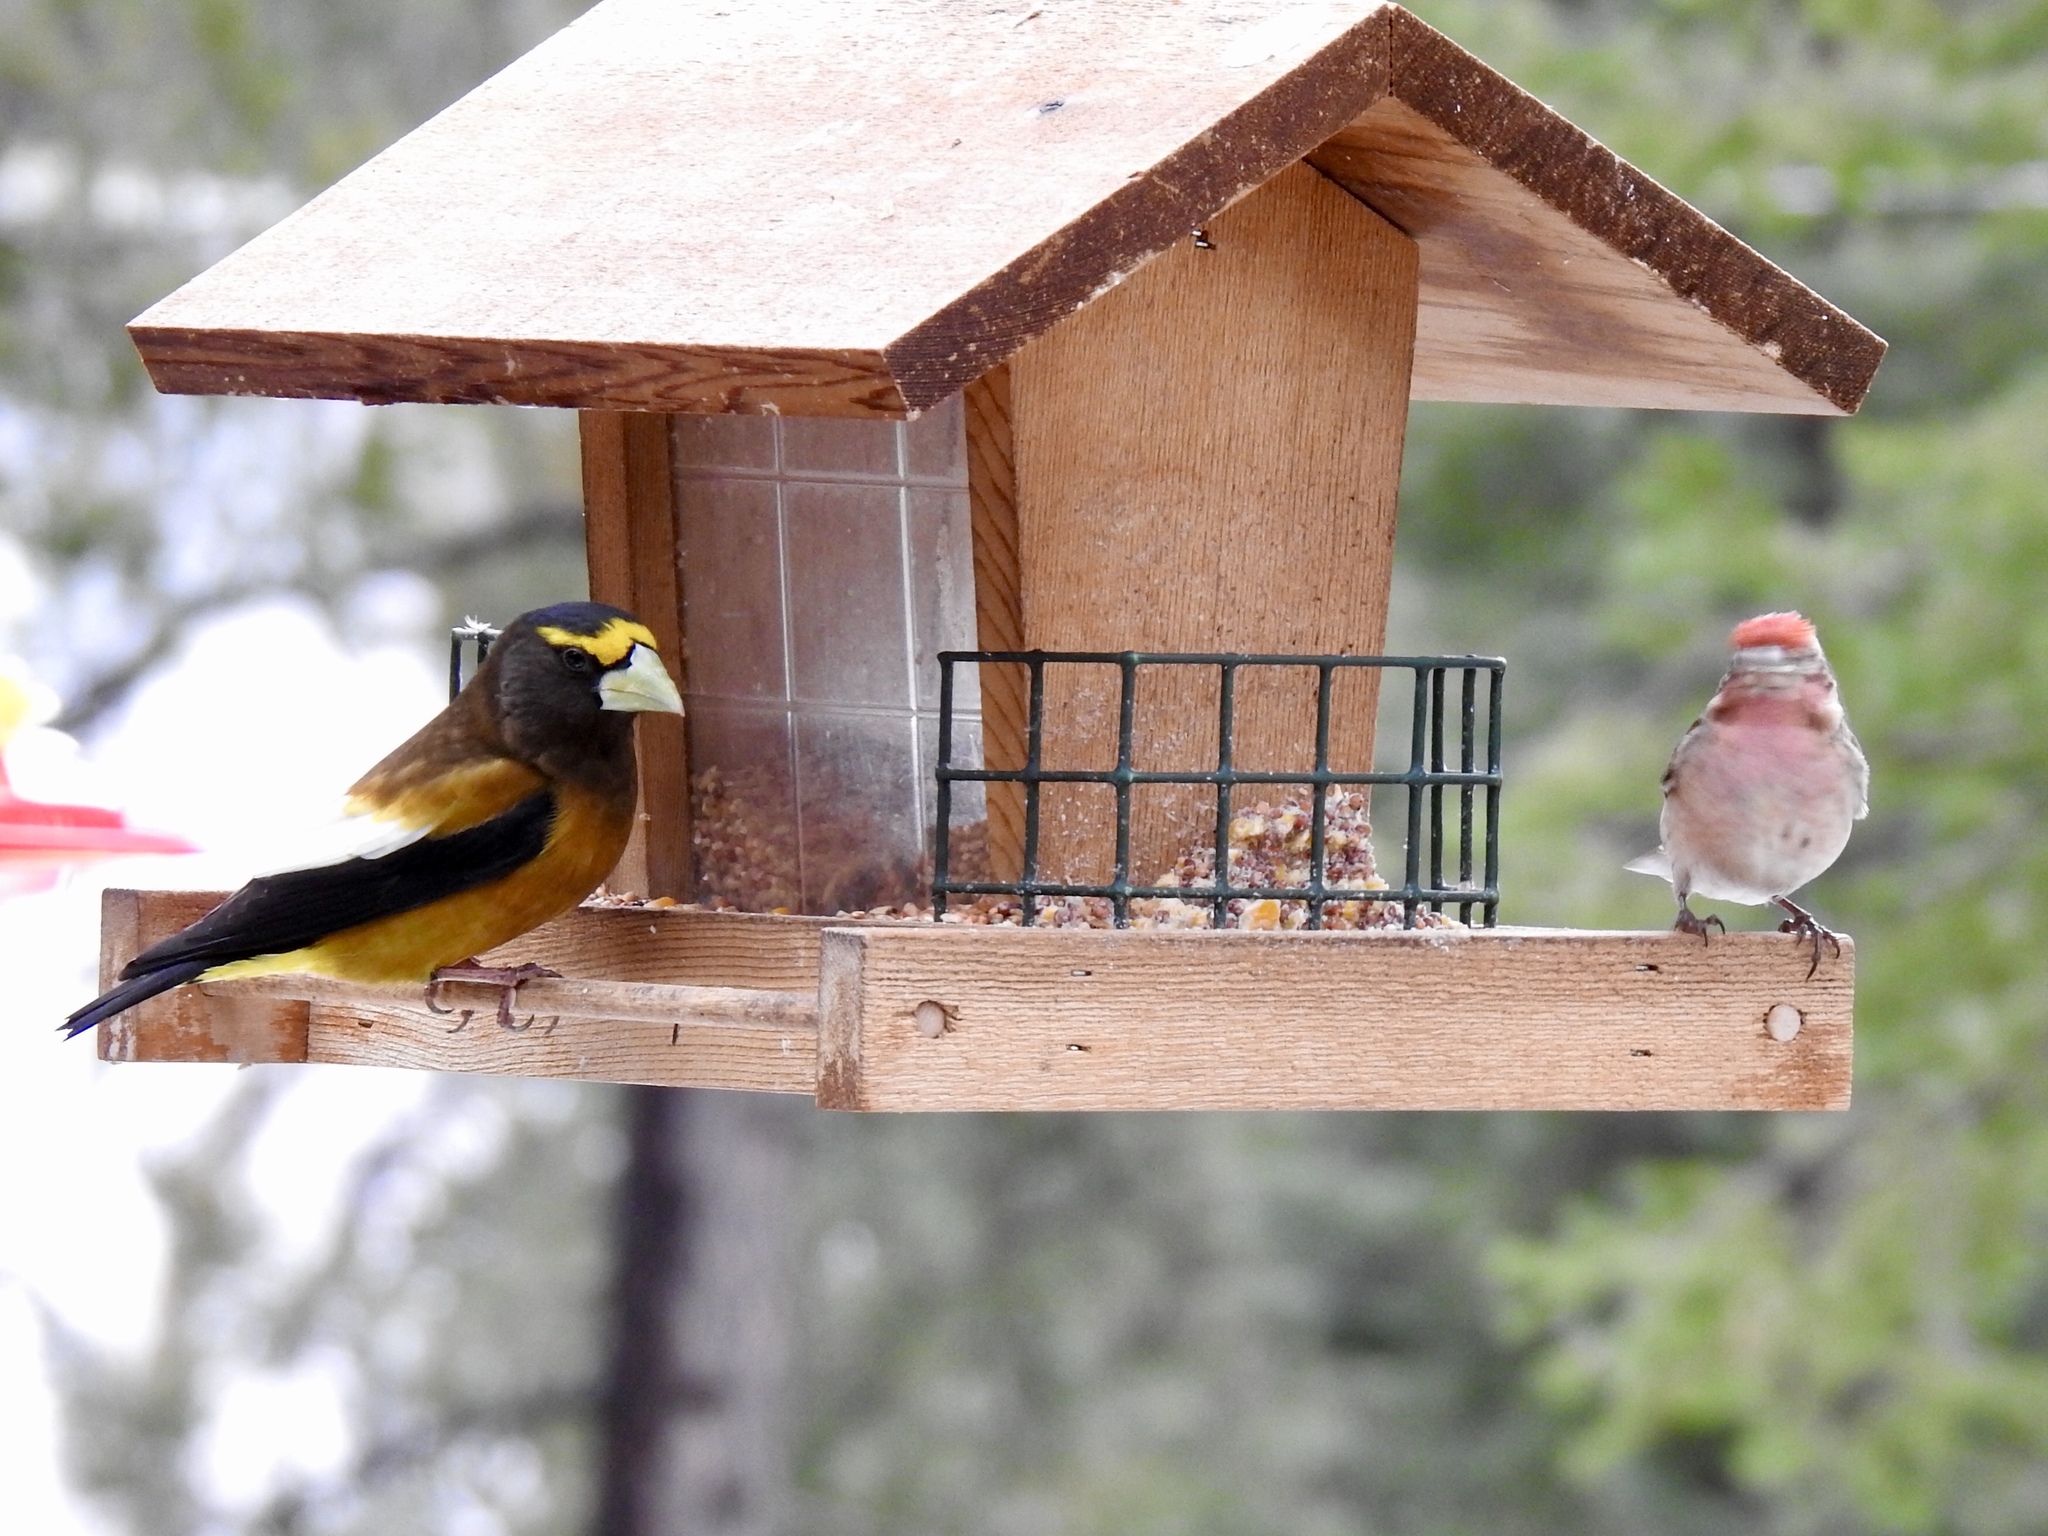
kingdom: Animalia
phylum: Chordata
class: Aves
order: Passeriformes
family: Fringillidae
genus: Hesperiphona
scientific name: Hesperiphona vespertina
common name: Evening grosbeak
